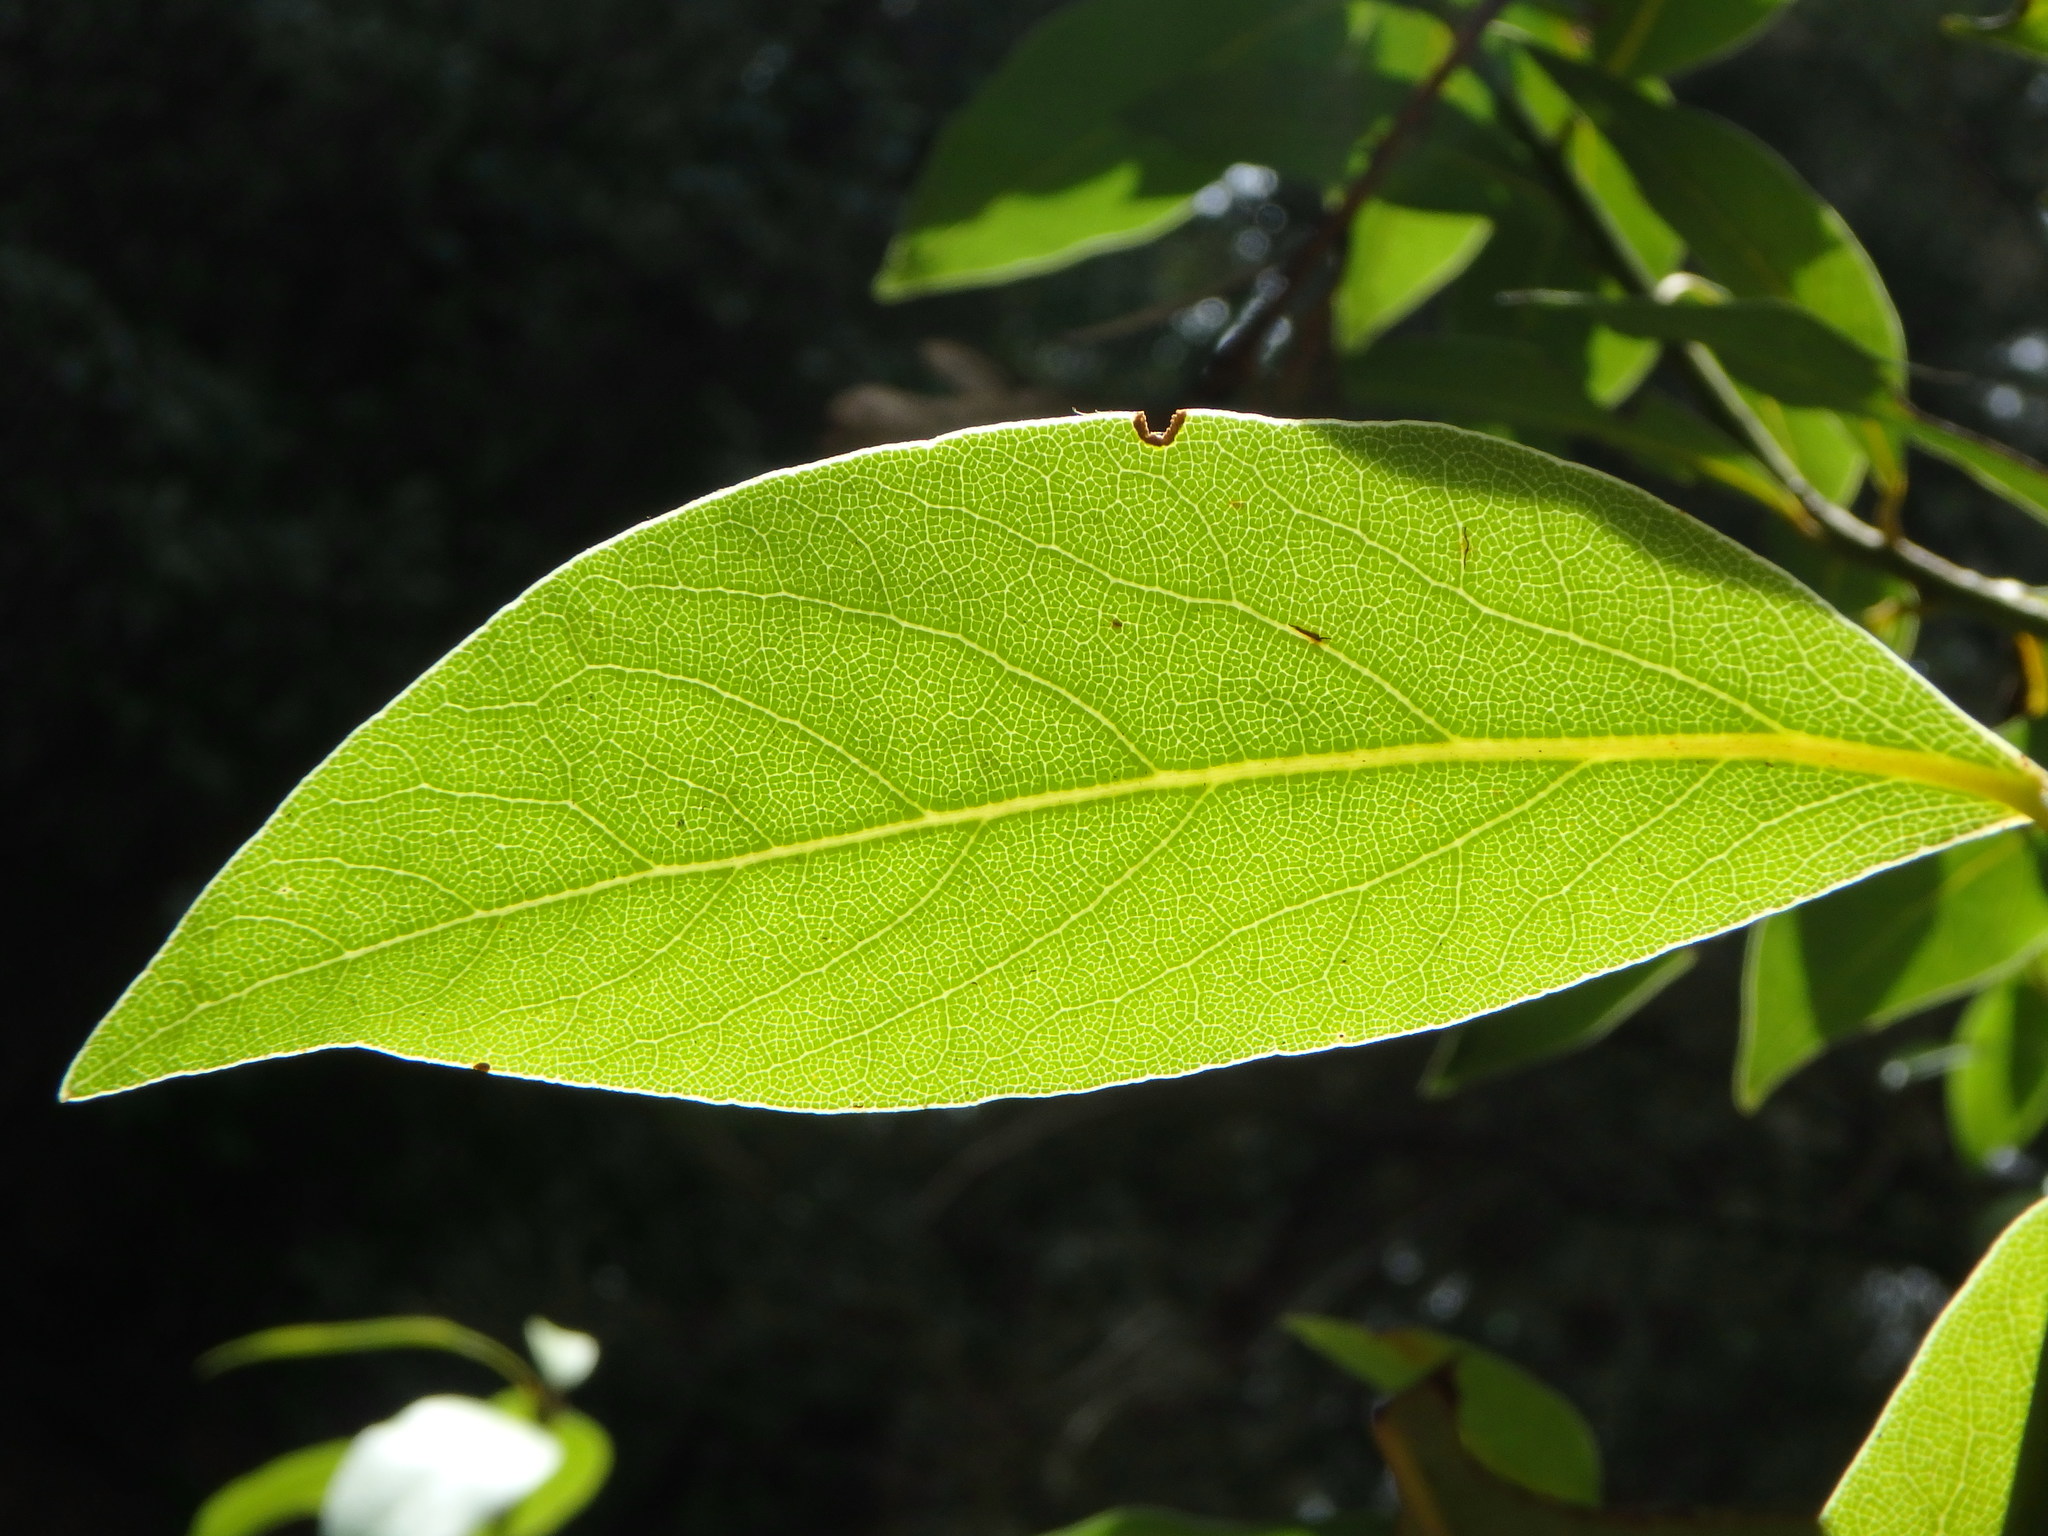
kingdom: Plantae
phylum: Tracheophyta
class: Magnoliopsida
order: Laurales
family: Lauraceae
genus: Laurus
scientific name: Laurus novocanariensis
